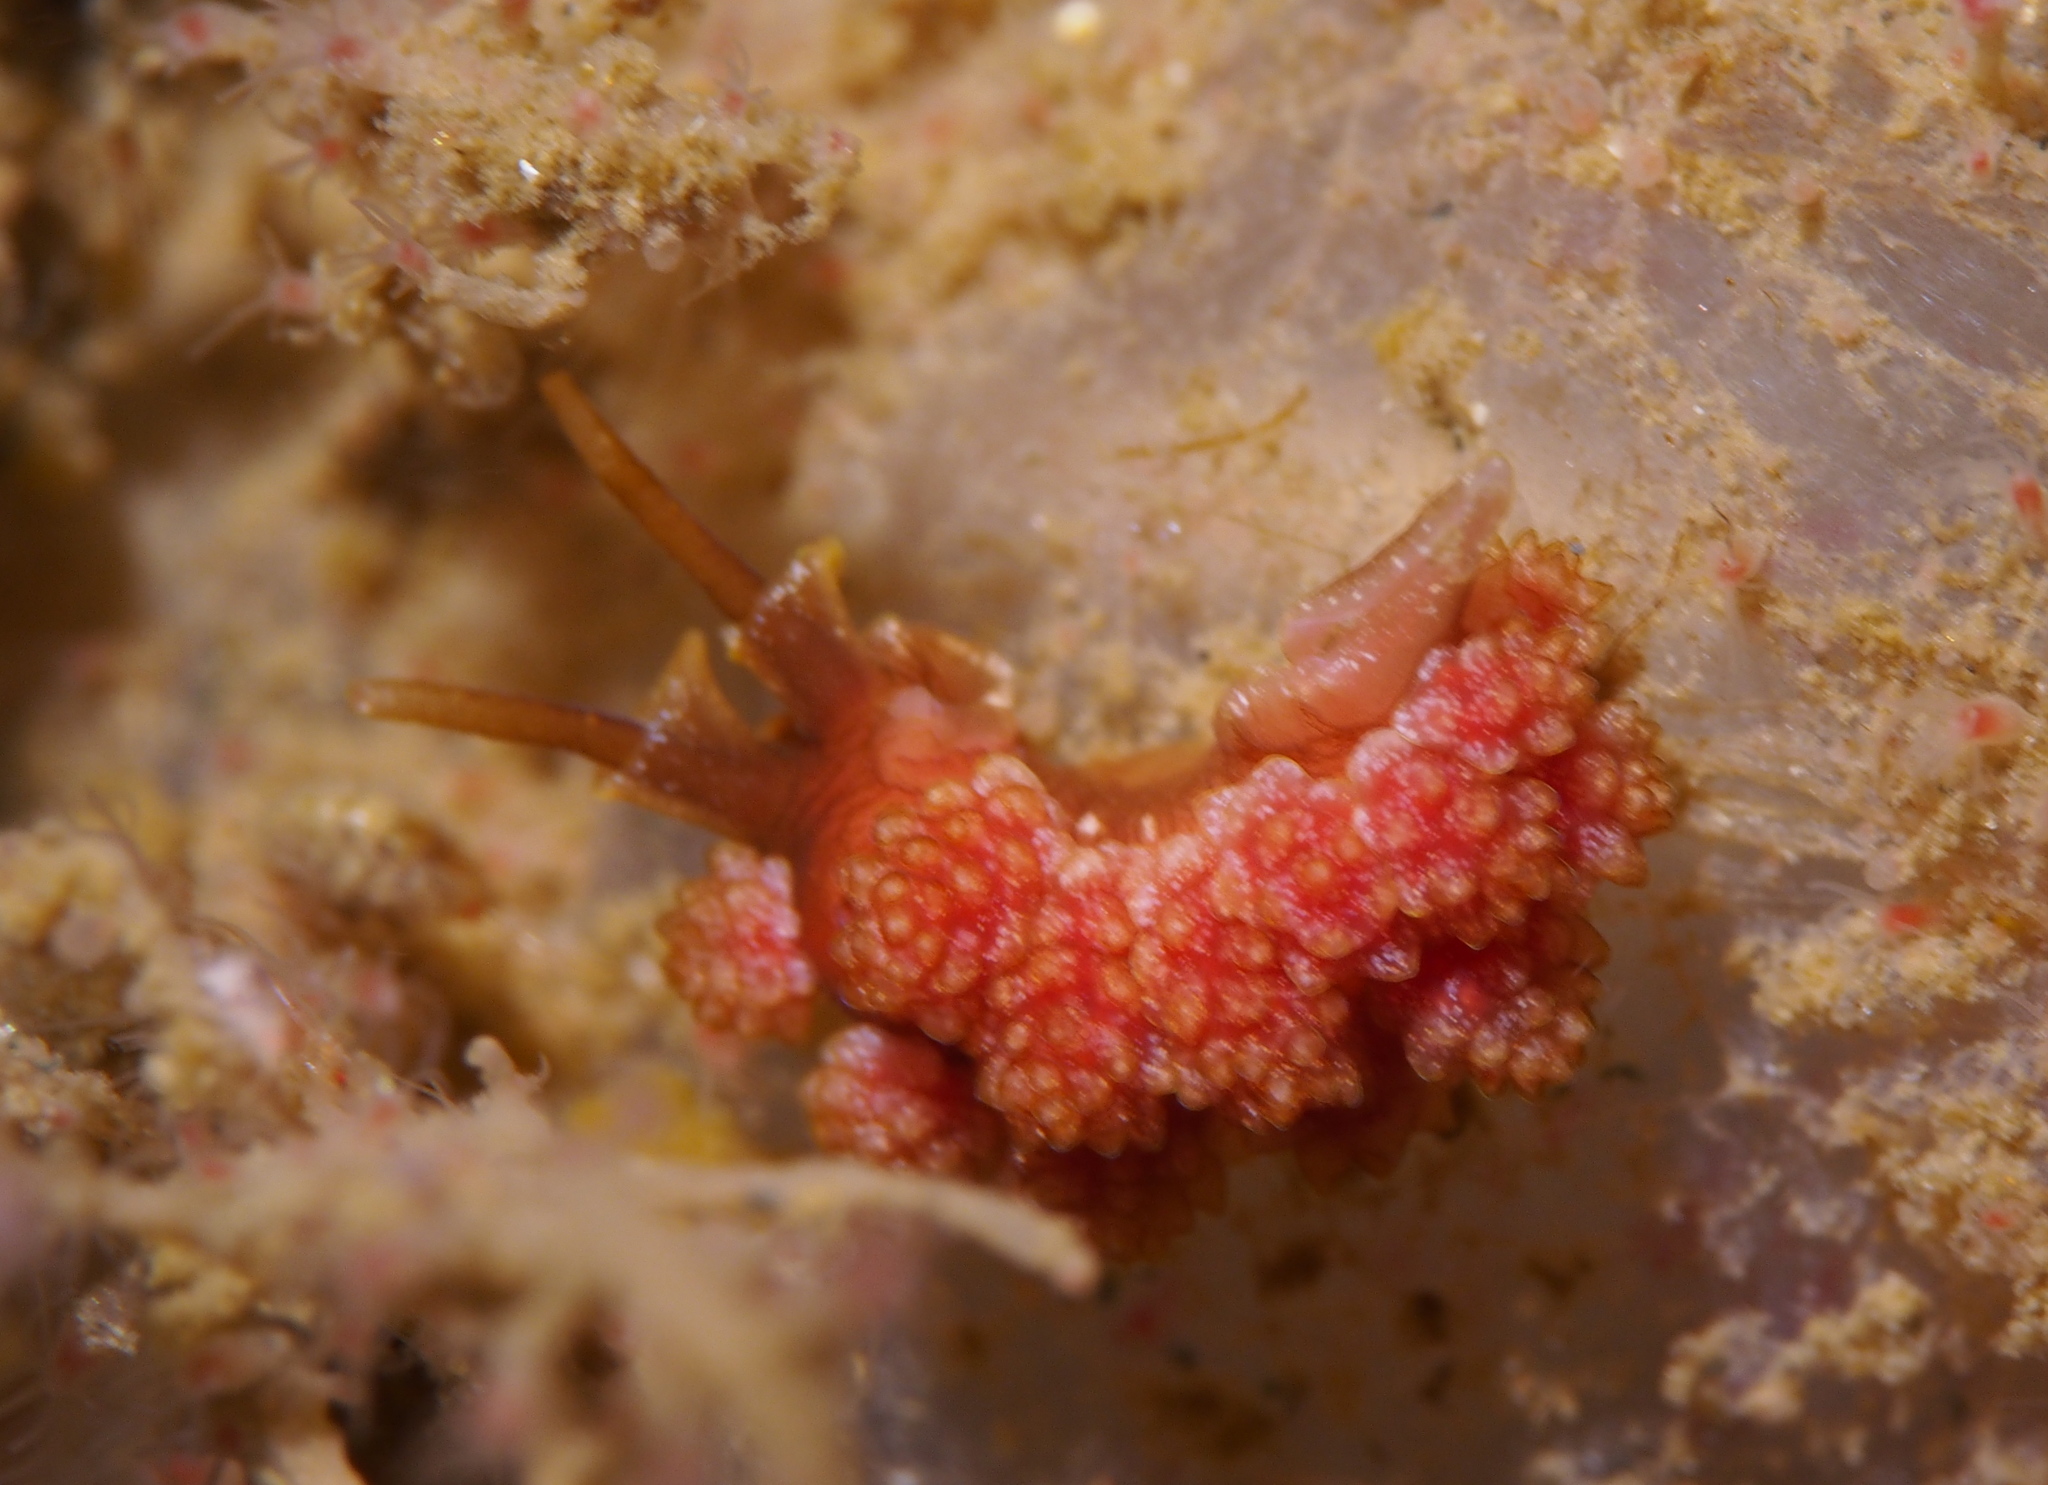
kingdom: Animalia
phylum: Mollusca
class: Gastropoda
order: Nudibranchia
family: Dotidae
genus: Doto
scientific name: Doto fragilis
